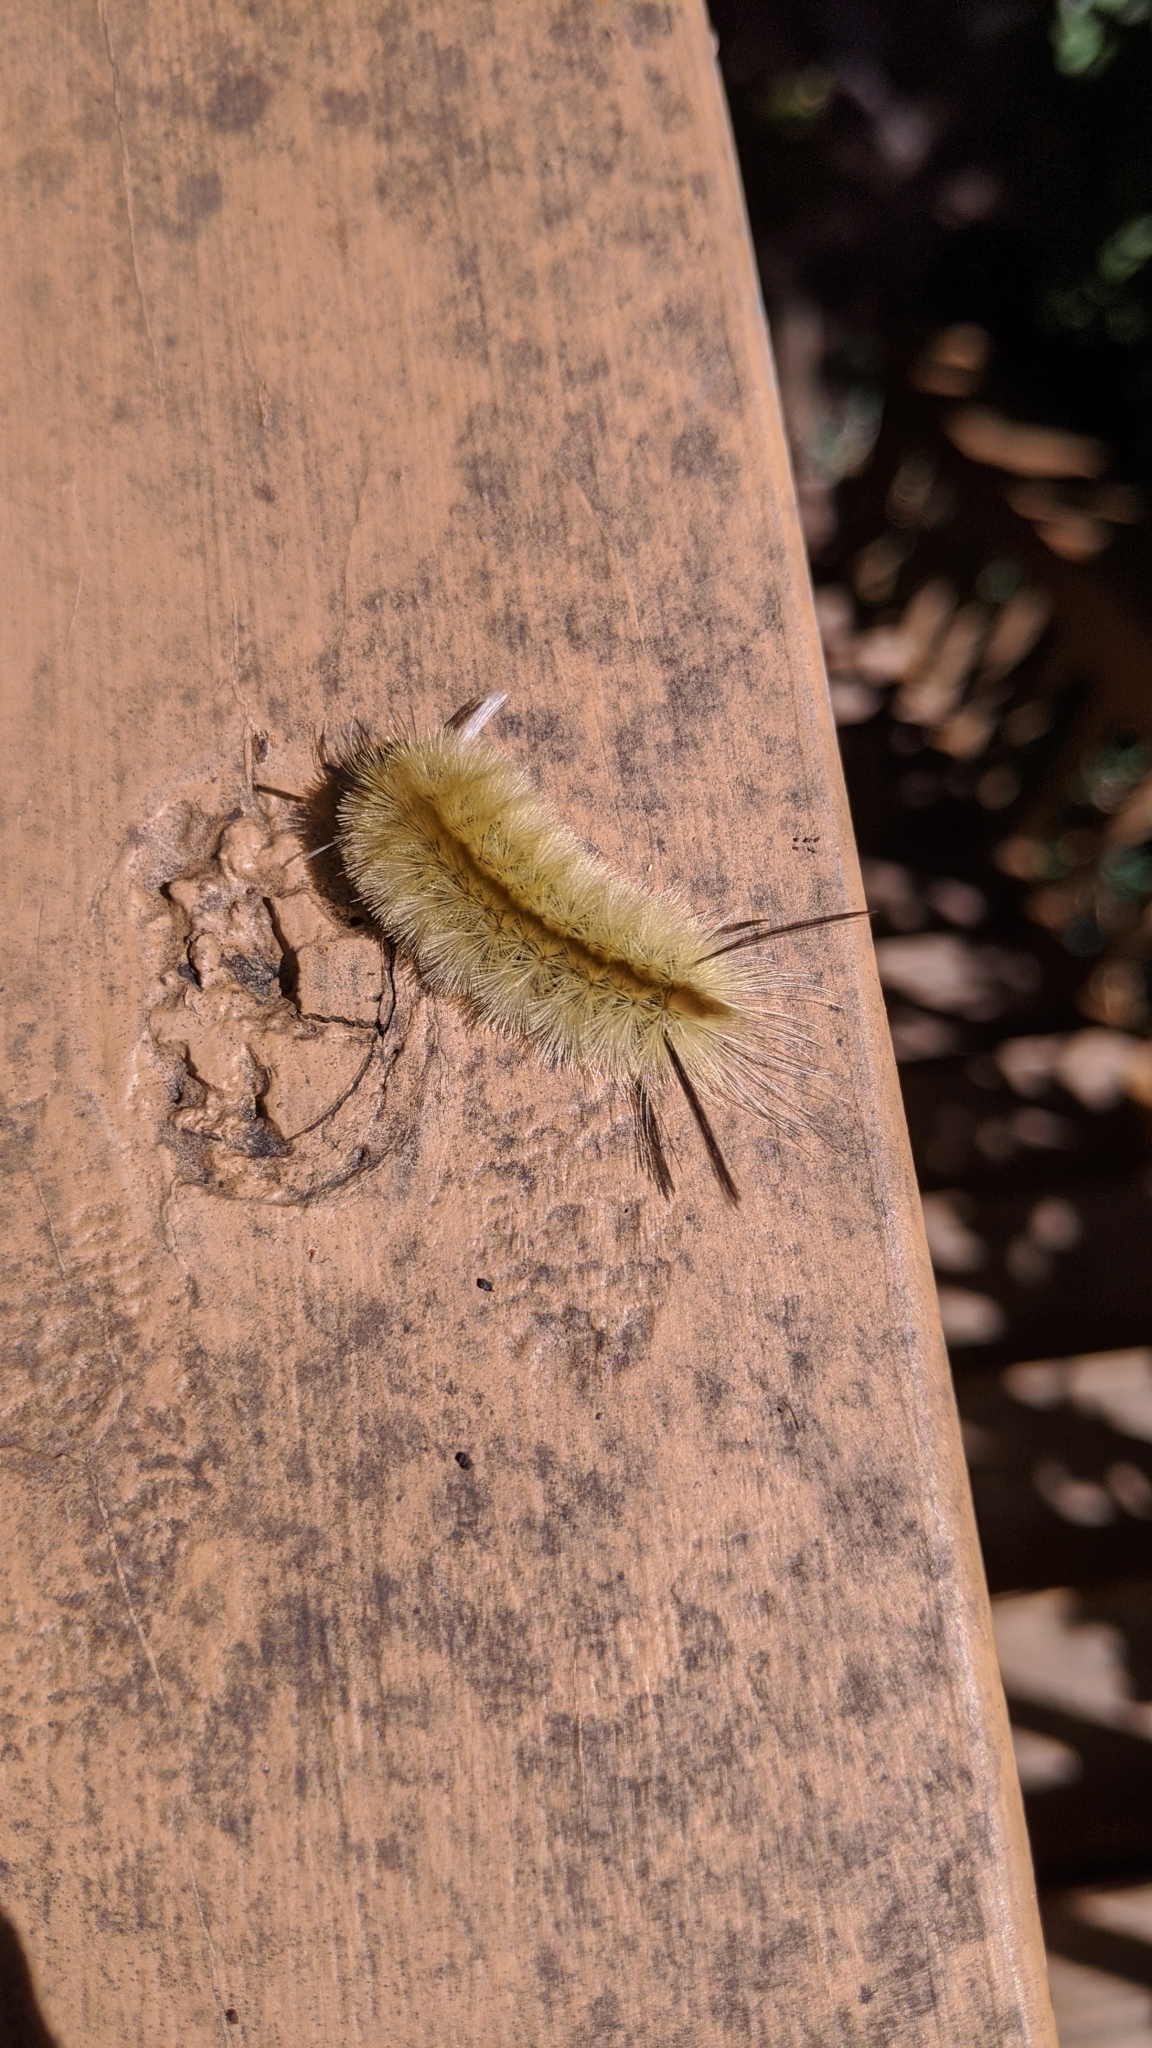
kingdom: Animalia
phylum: Arthropoda
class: Insecta
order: Lepidoptera
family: Erebidae
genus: Halysidota
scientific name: Halysidota tessellaris
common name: Banded tussock moth
